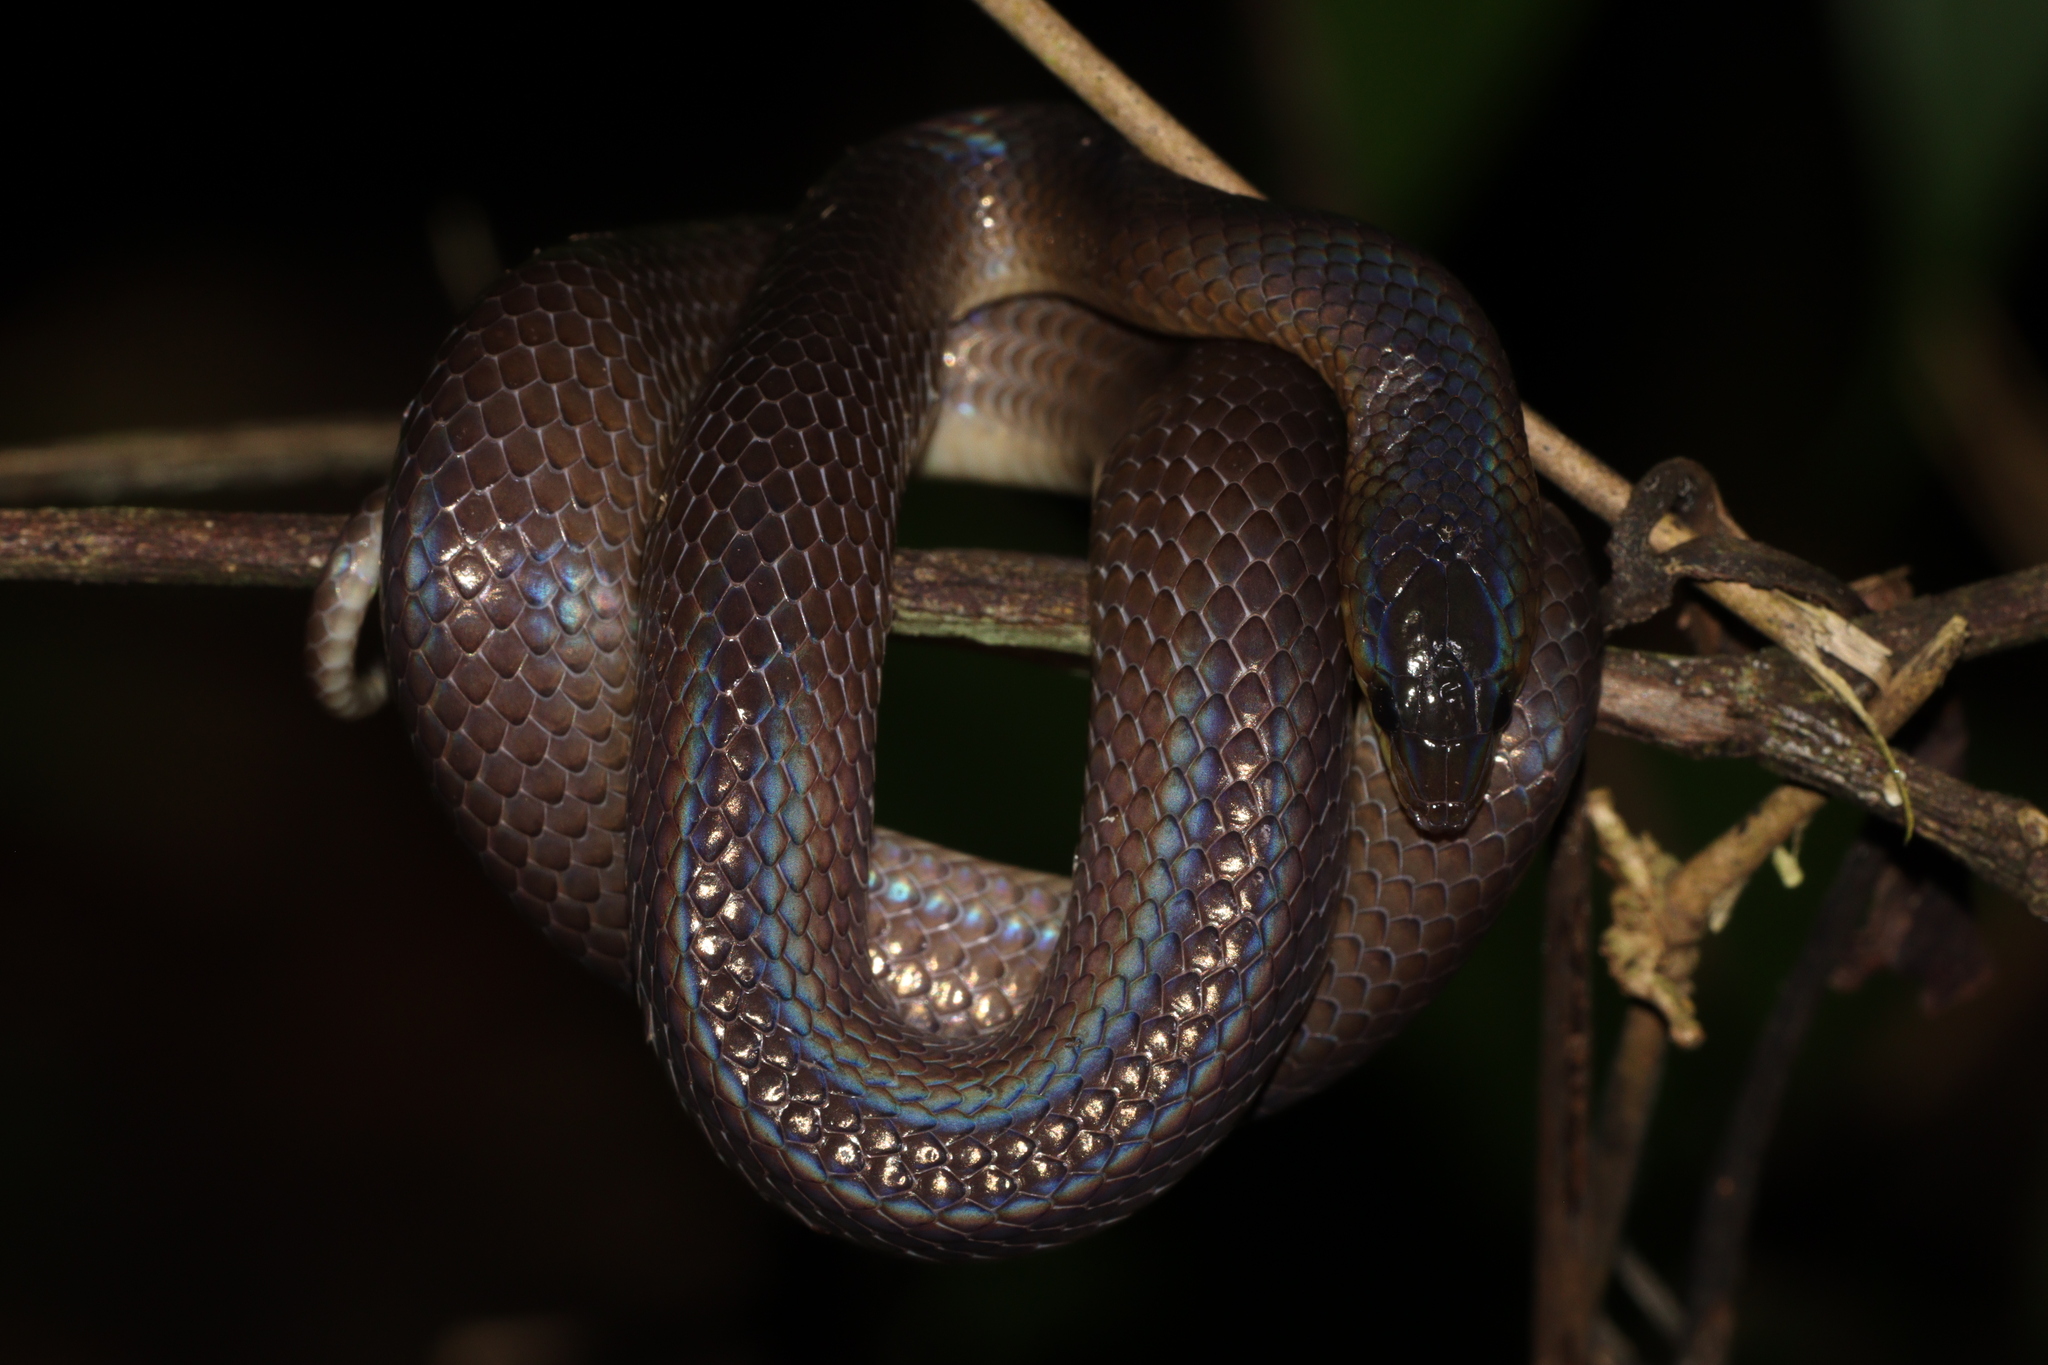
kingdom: Animalia
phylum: Chordata
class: Squamata
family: Cyclocoridae
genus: Oxyrhabdium
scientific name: Oxyrhabdium modestum
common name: Philippine shrub snake
